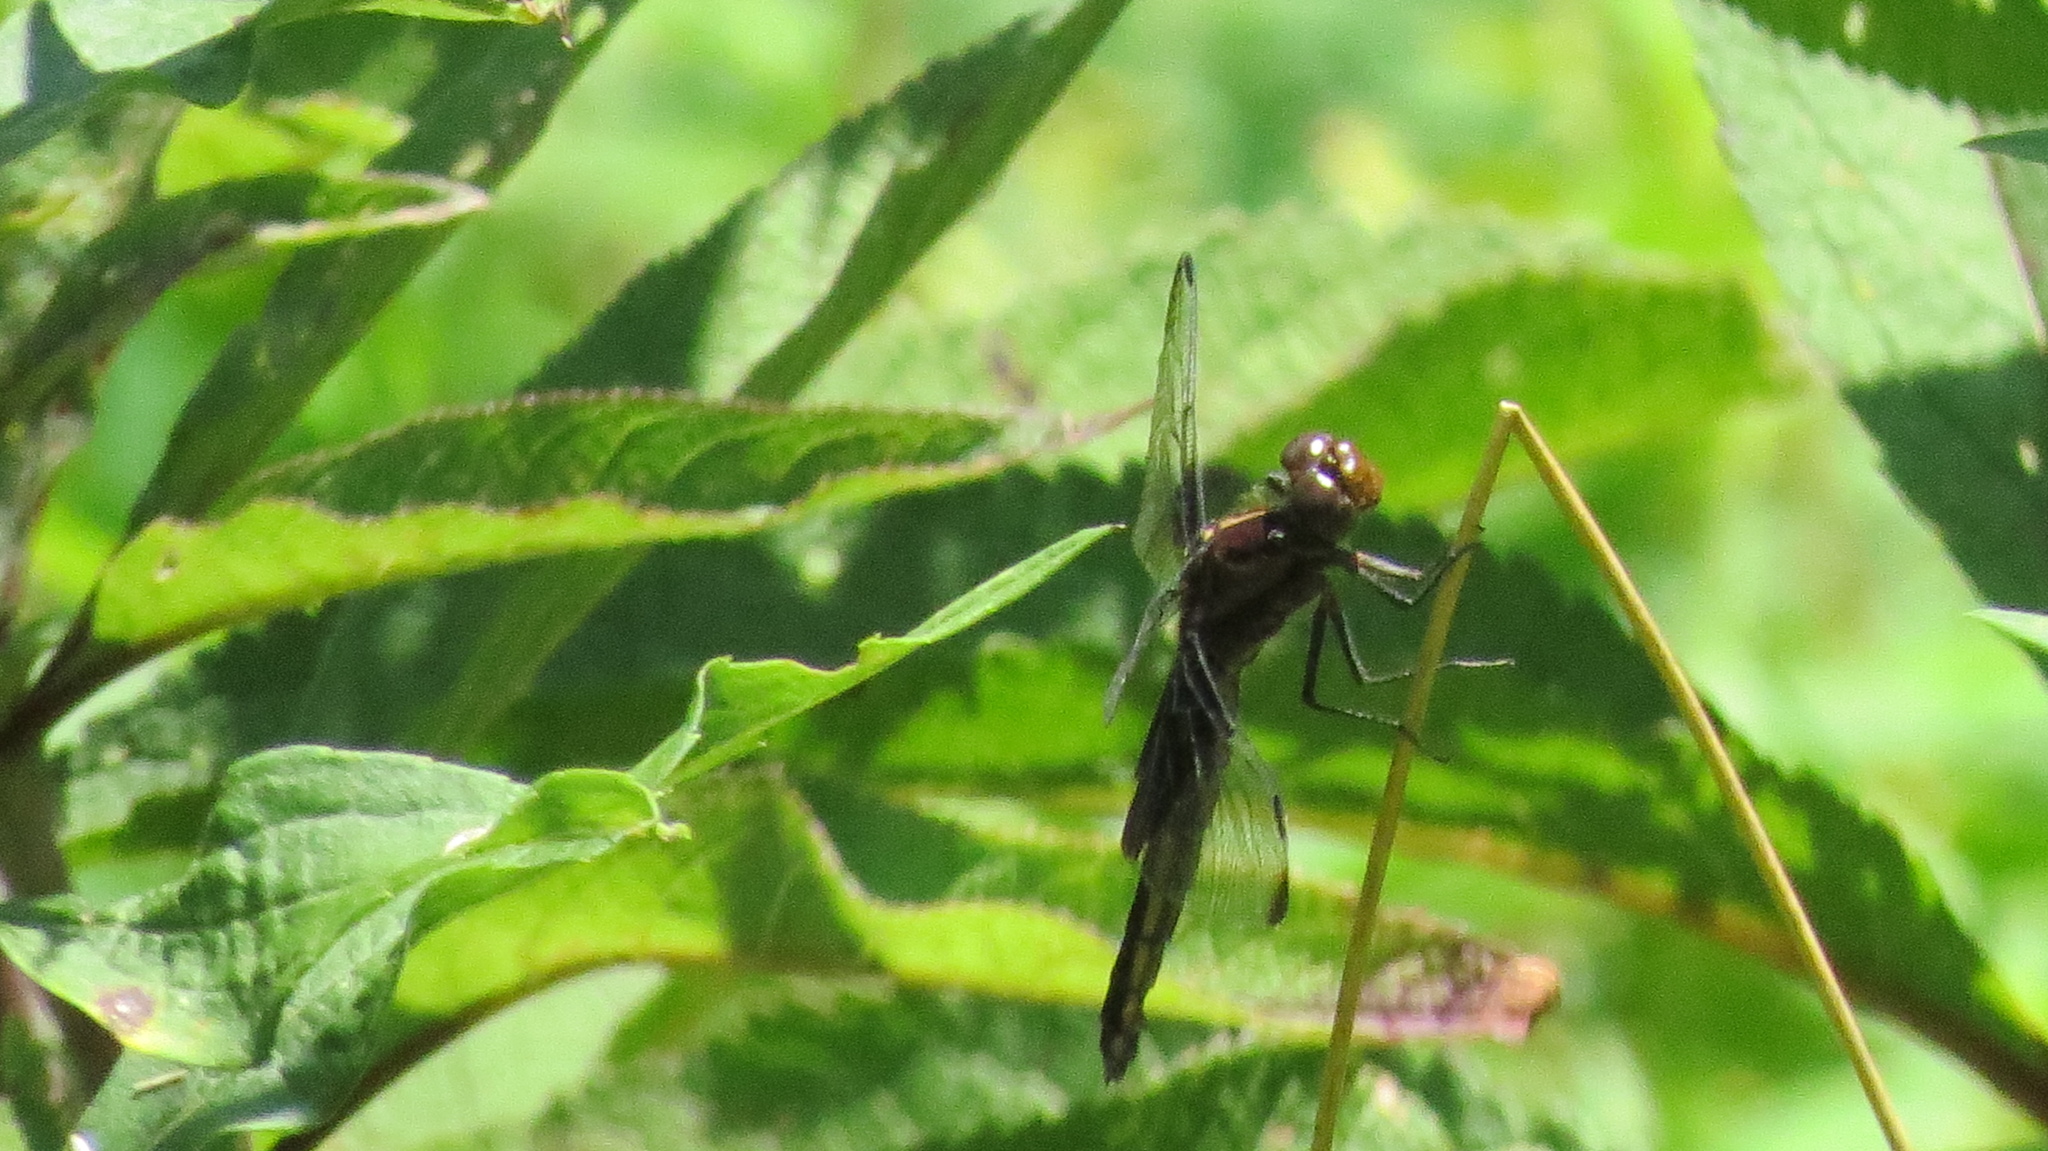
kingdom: Animalia
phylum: Arthropoda
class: Insecta
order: Odonata
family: Libellulidae
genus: Libellula
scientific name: Libellula luctuosa
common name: Widow skimmer
